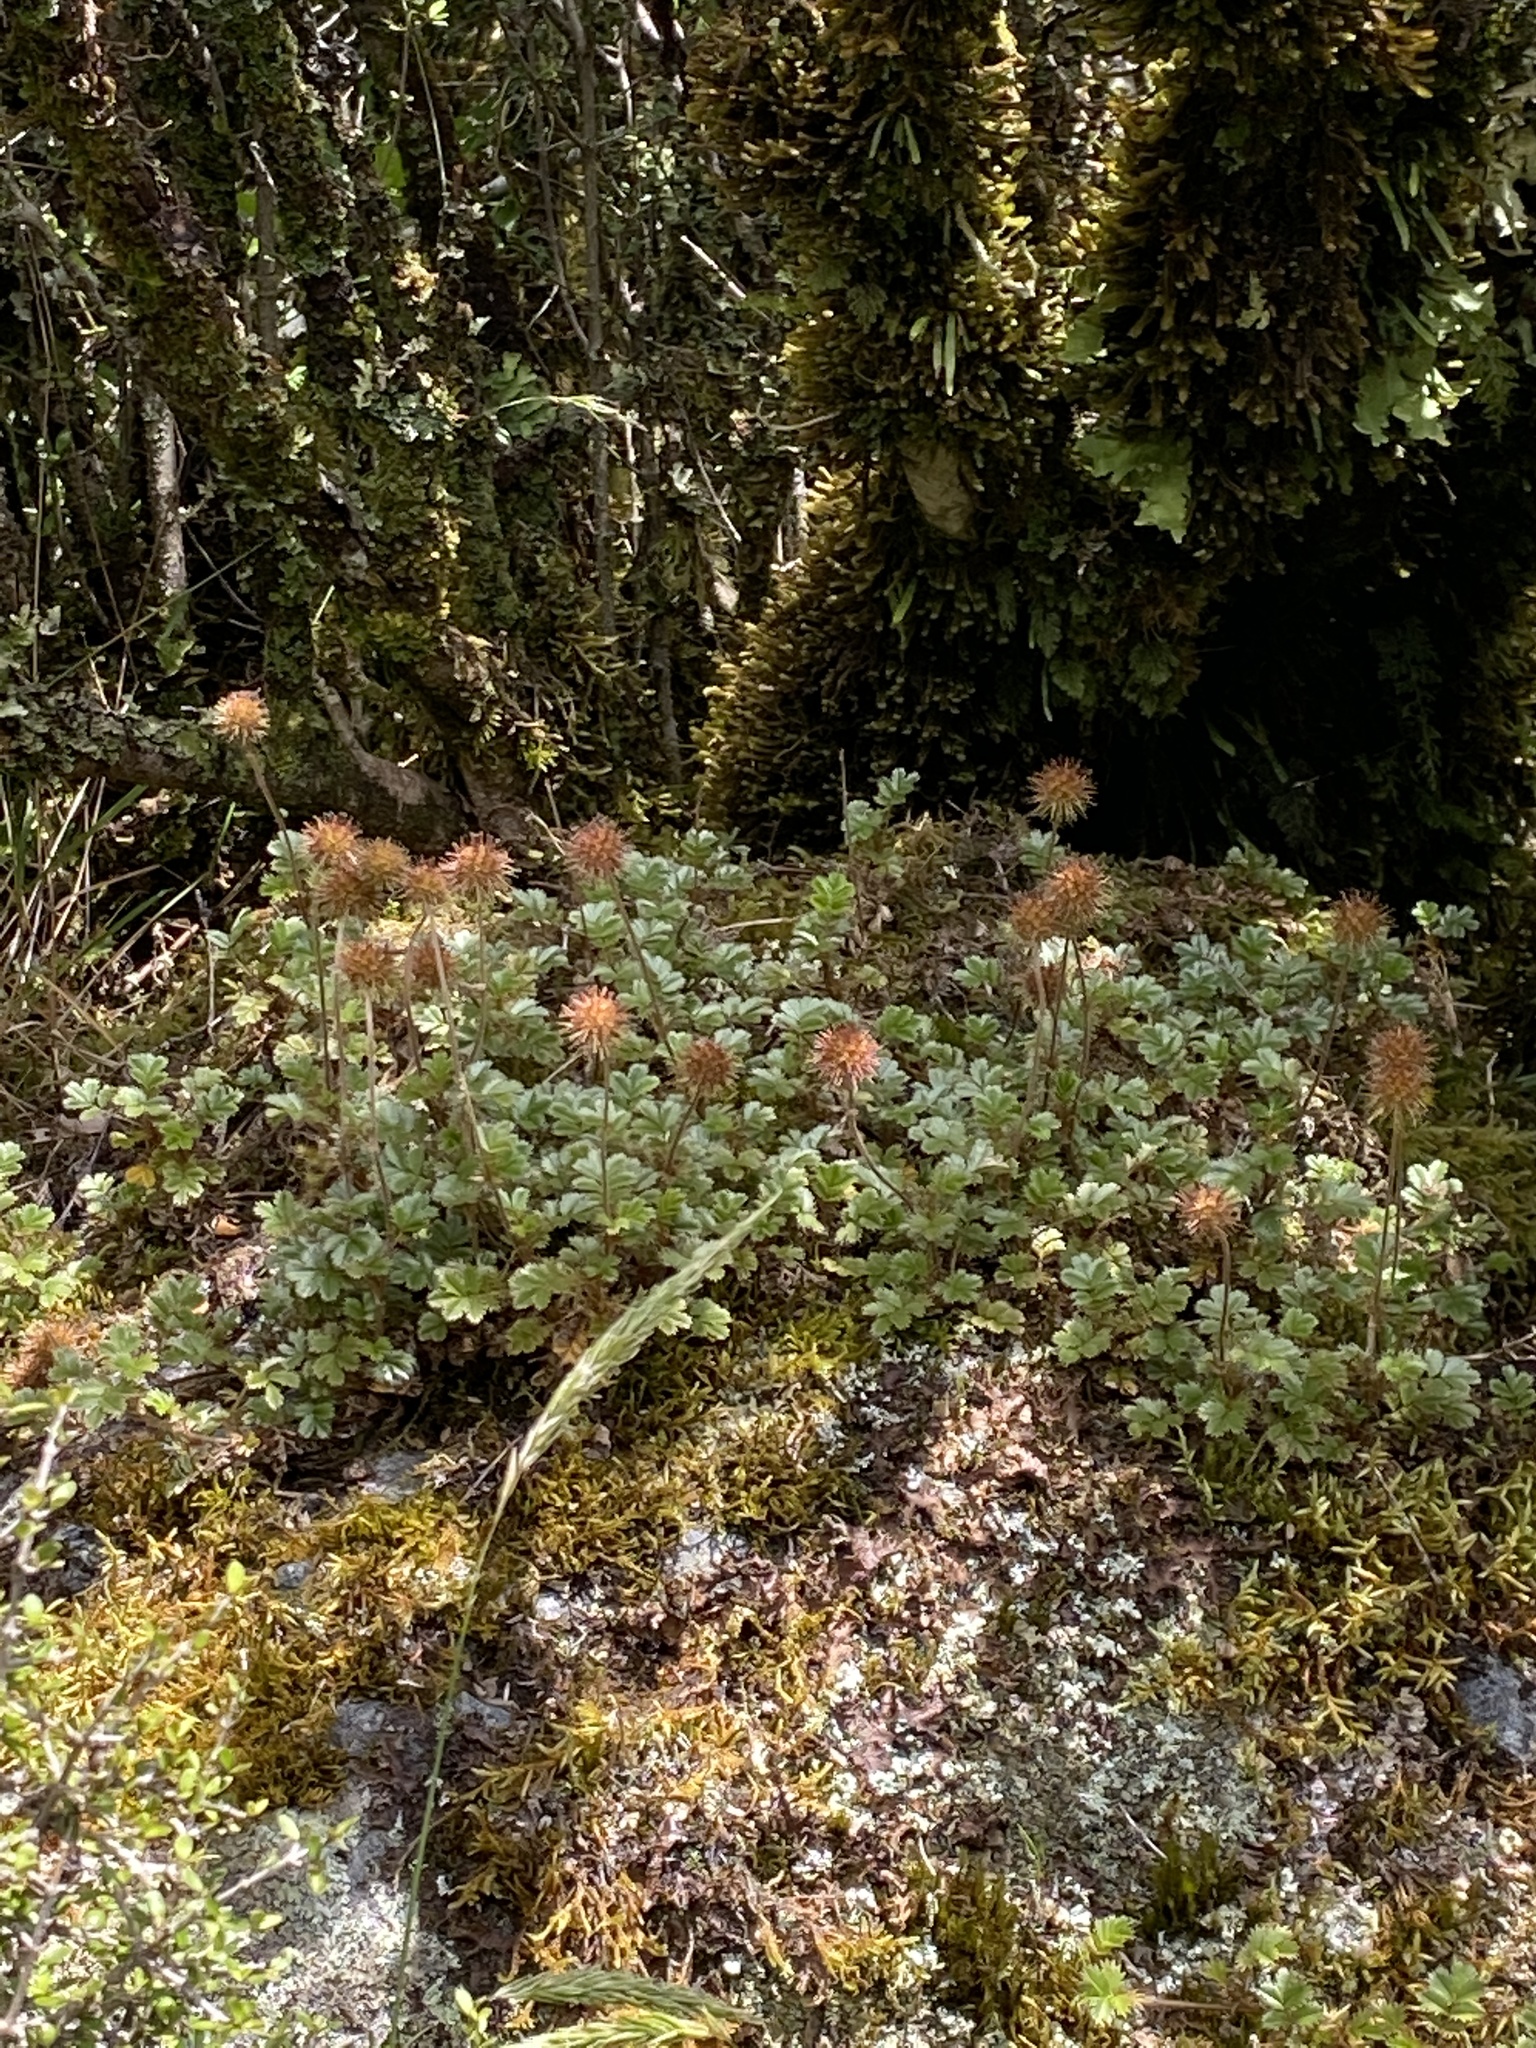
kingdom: Plantae
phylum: Tracheophyta
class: Magnoliopsida
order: Rosales
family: Rosaceae
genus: Acaena
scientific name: Acaena anserinifolia
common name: Bronze pirri-pirri-bur
